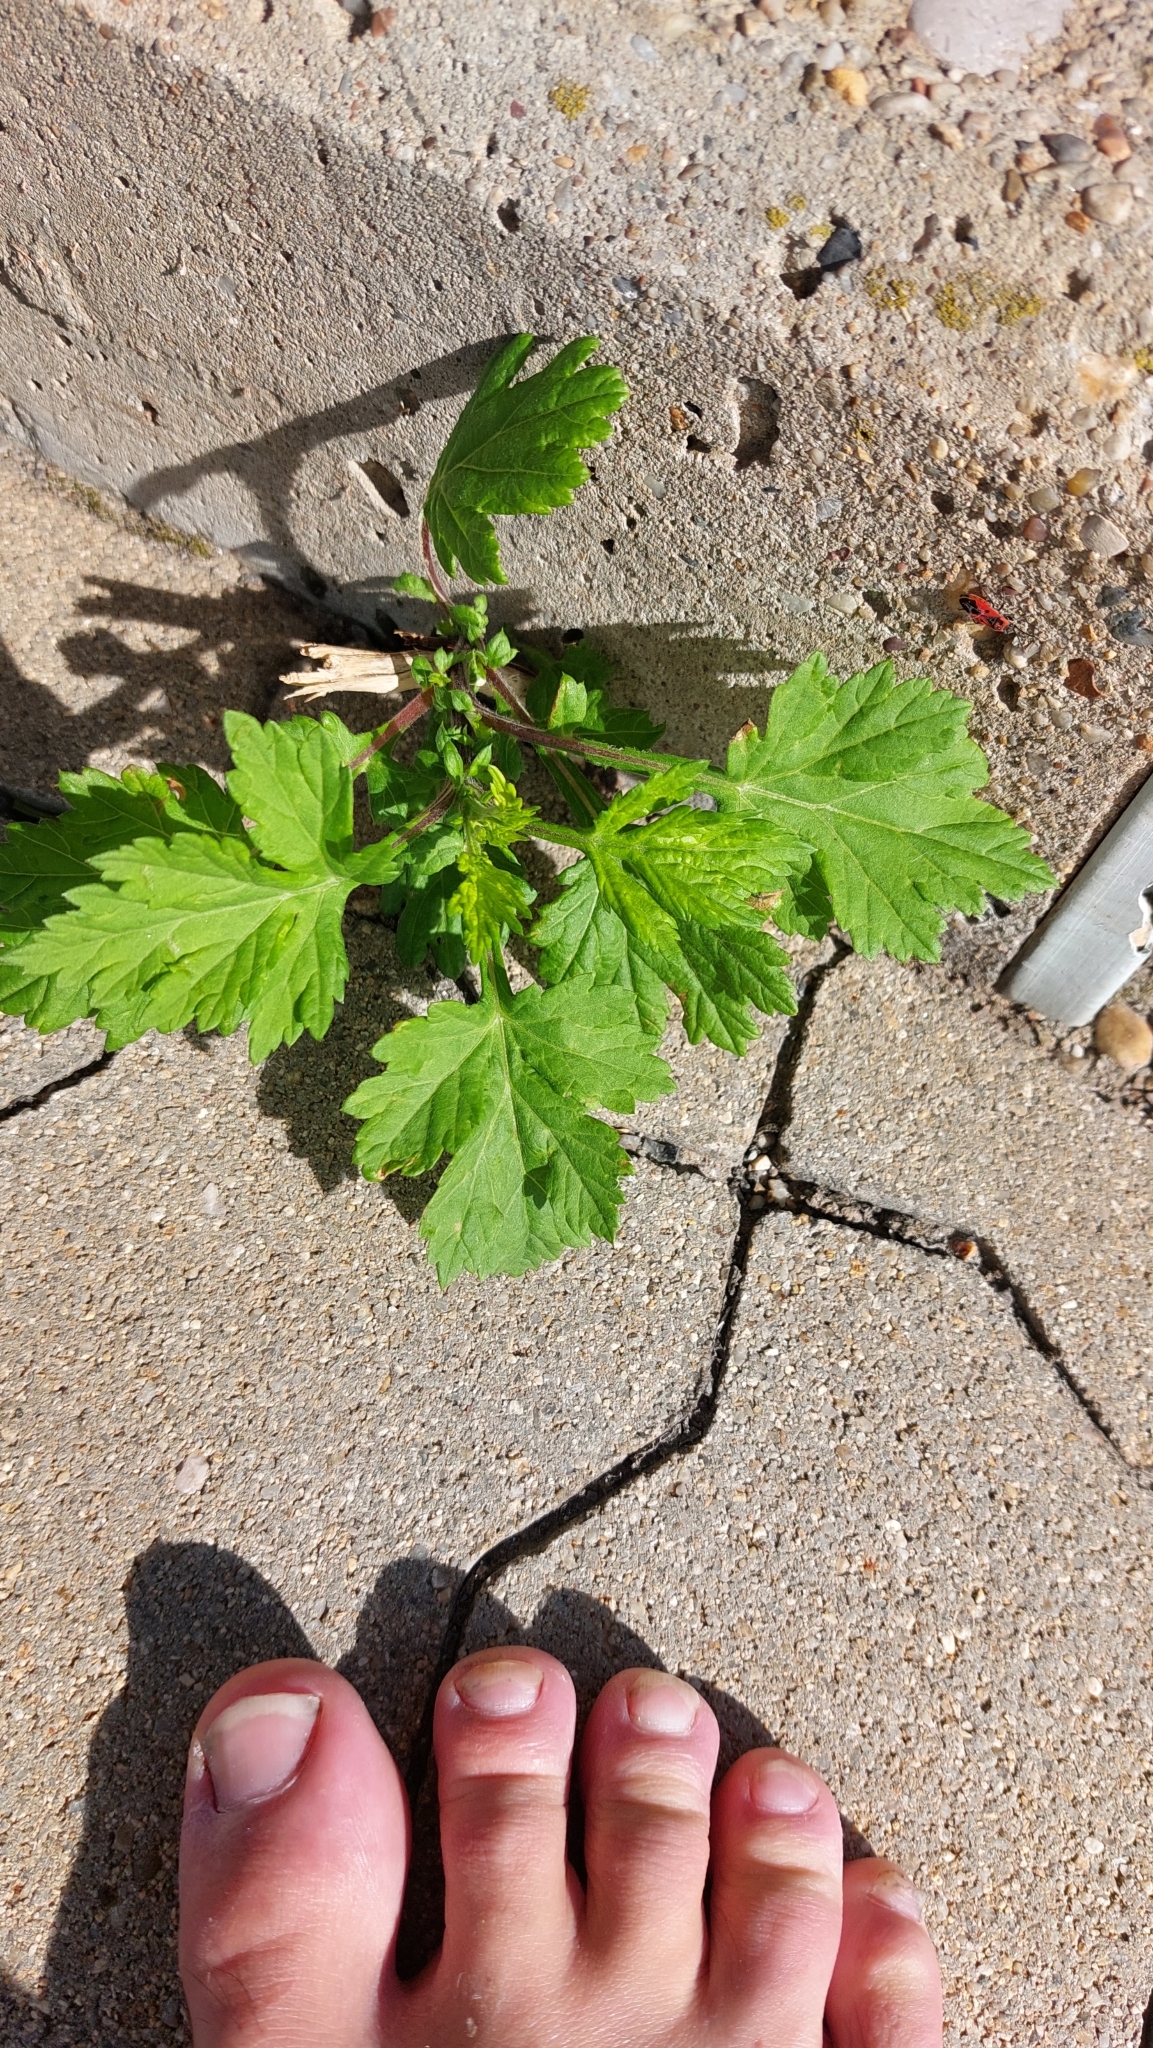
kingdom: Plantae
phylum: Tracheophyta
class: Magnoliopsida
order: Asterales
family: Asteraceae
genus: Artemisia
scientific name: Artemisia vulgaris
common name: Mugwort
